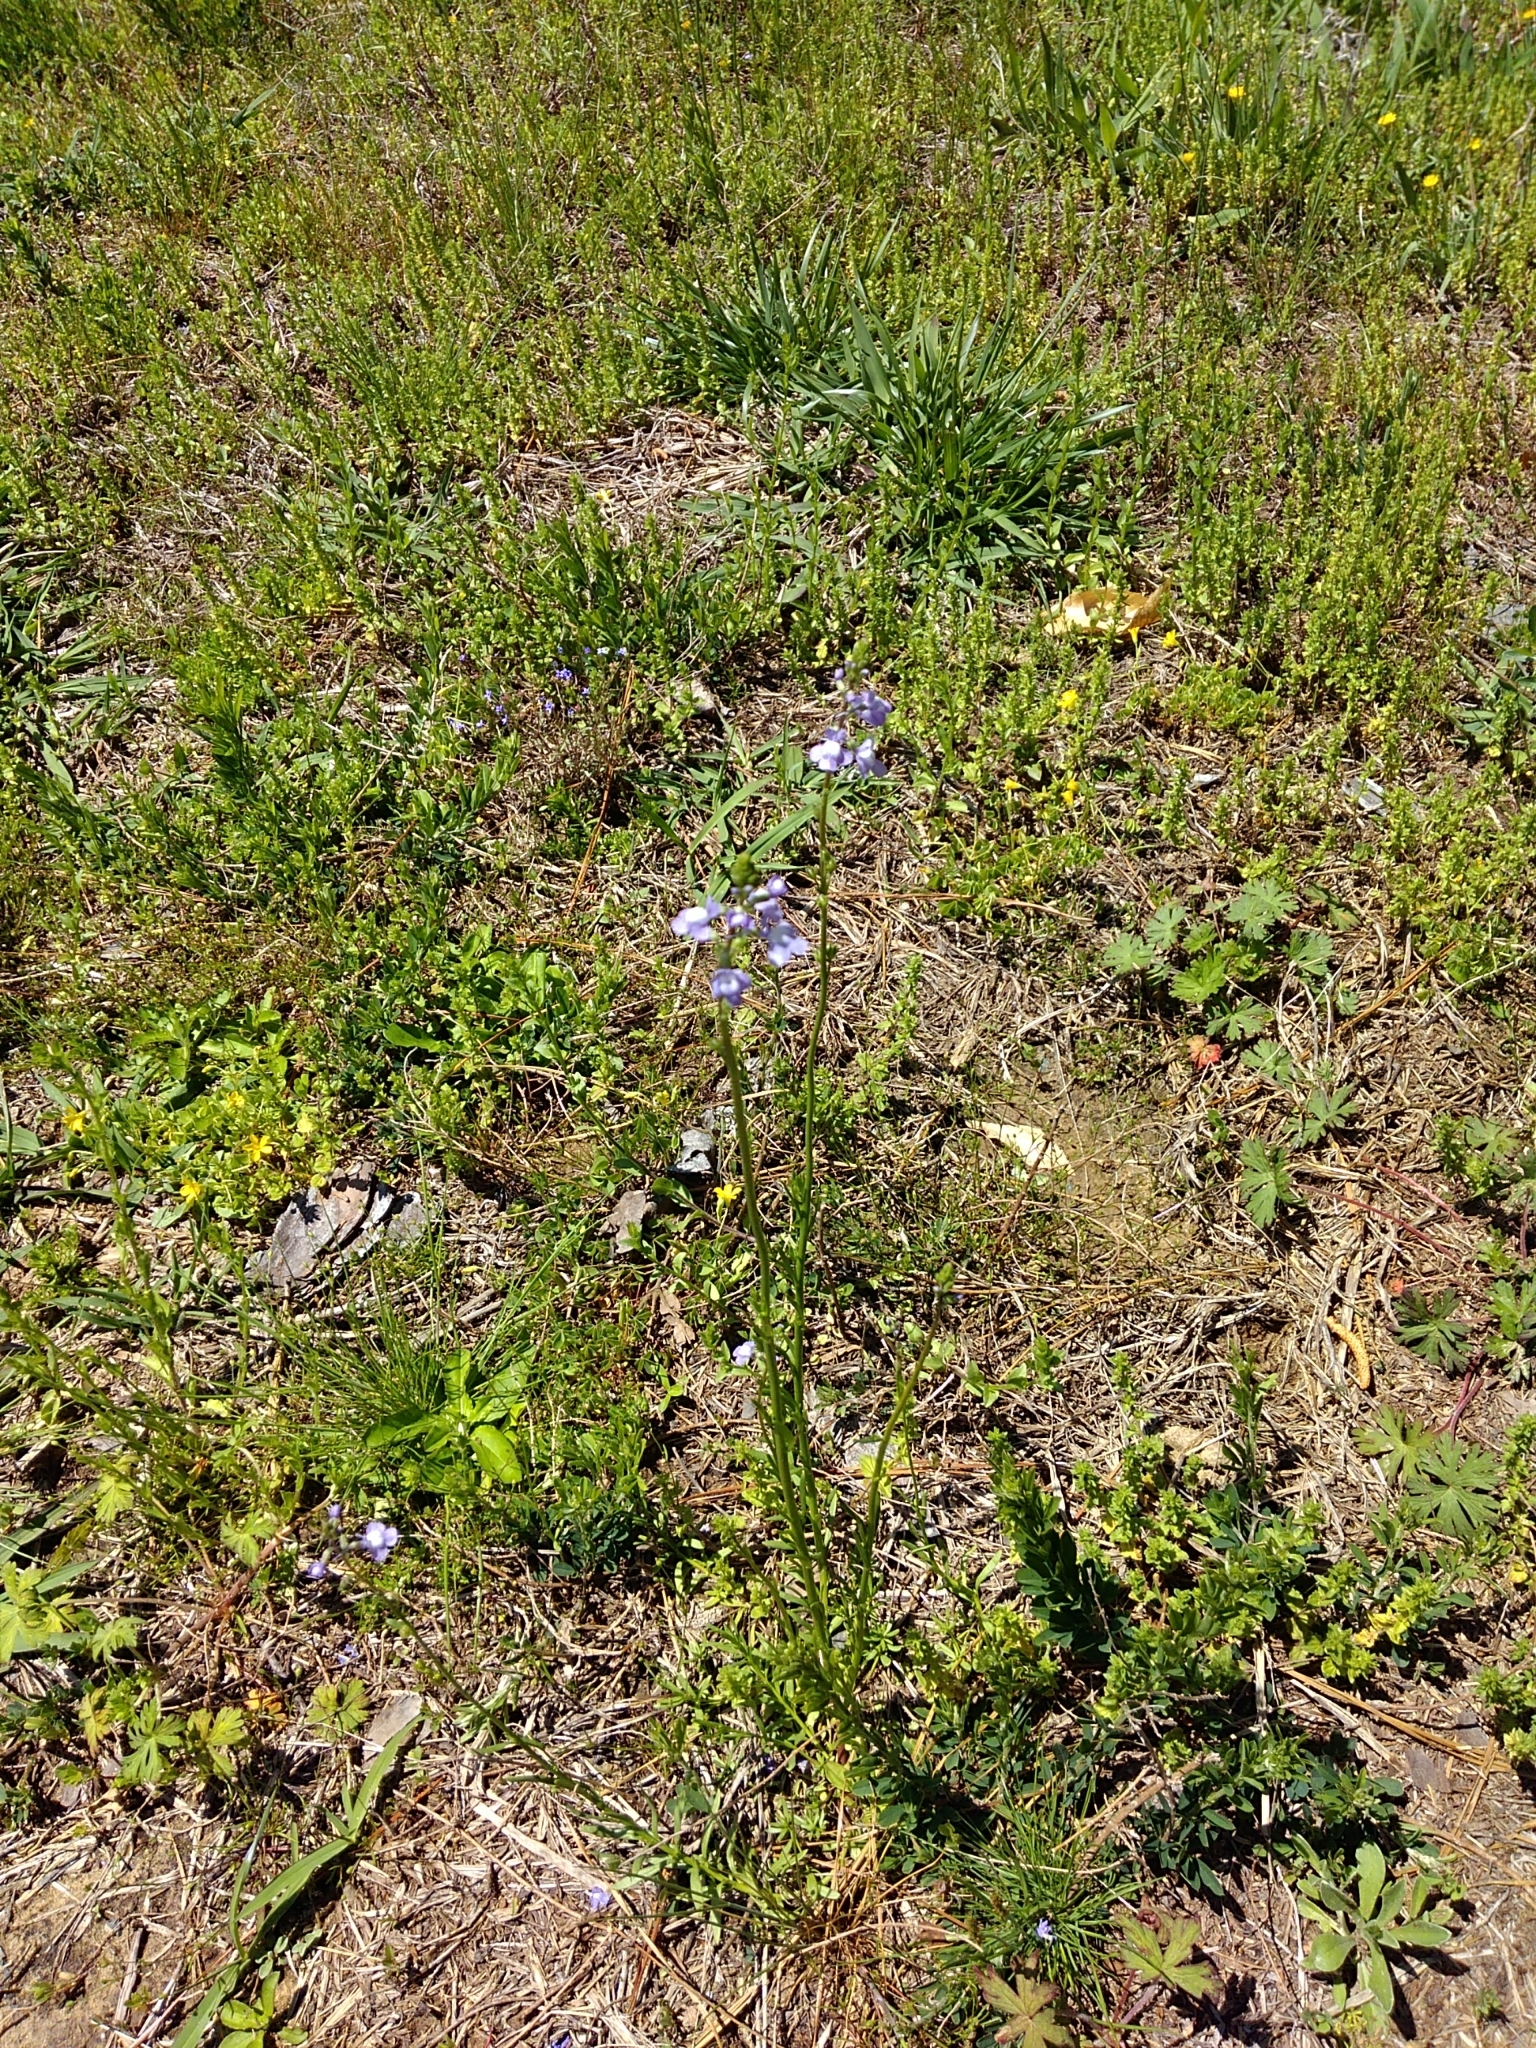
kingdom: Plantae
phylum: Tracheophyta
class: Magnoliopsida
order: Lamiales
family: Plantaginaceae
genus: Nuttallanthus
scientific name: Nuttallanthus canadensis
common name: Blue toadflax
